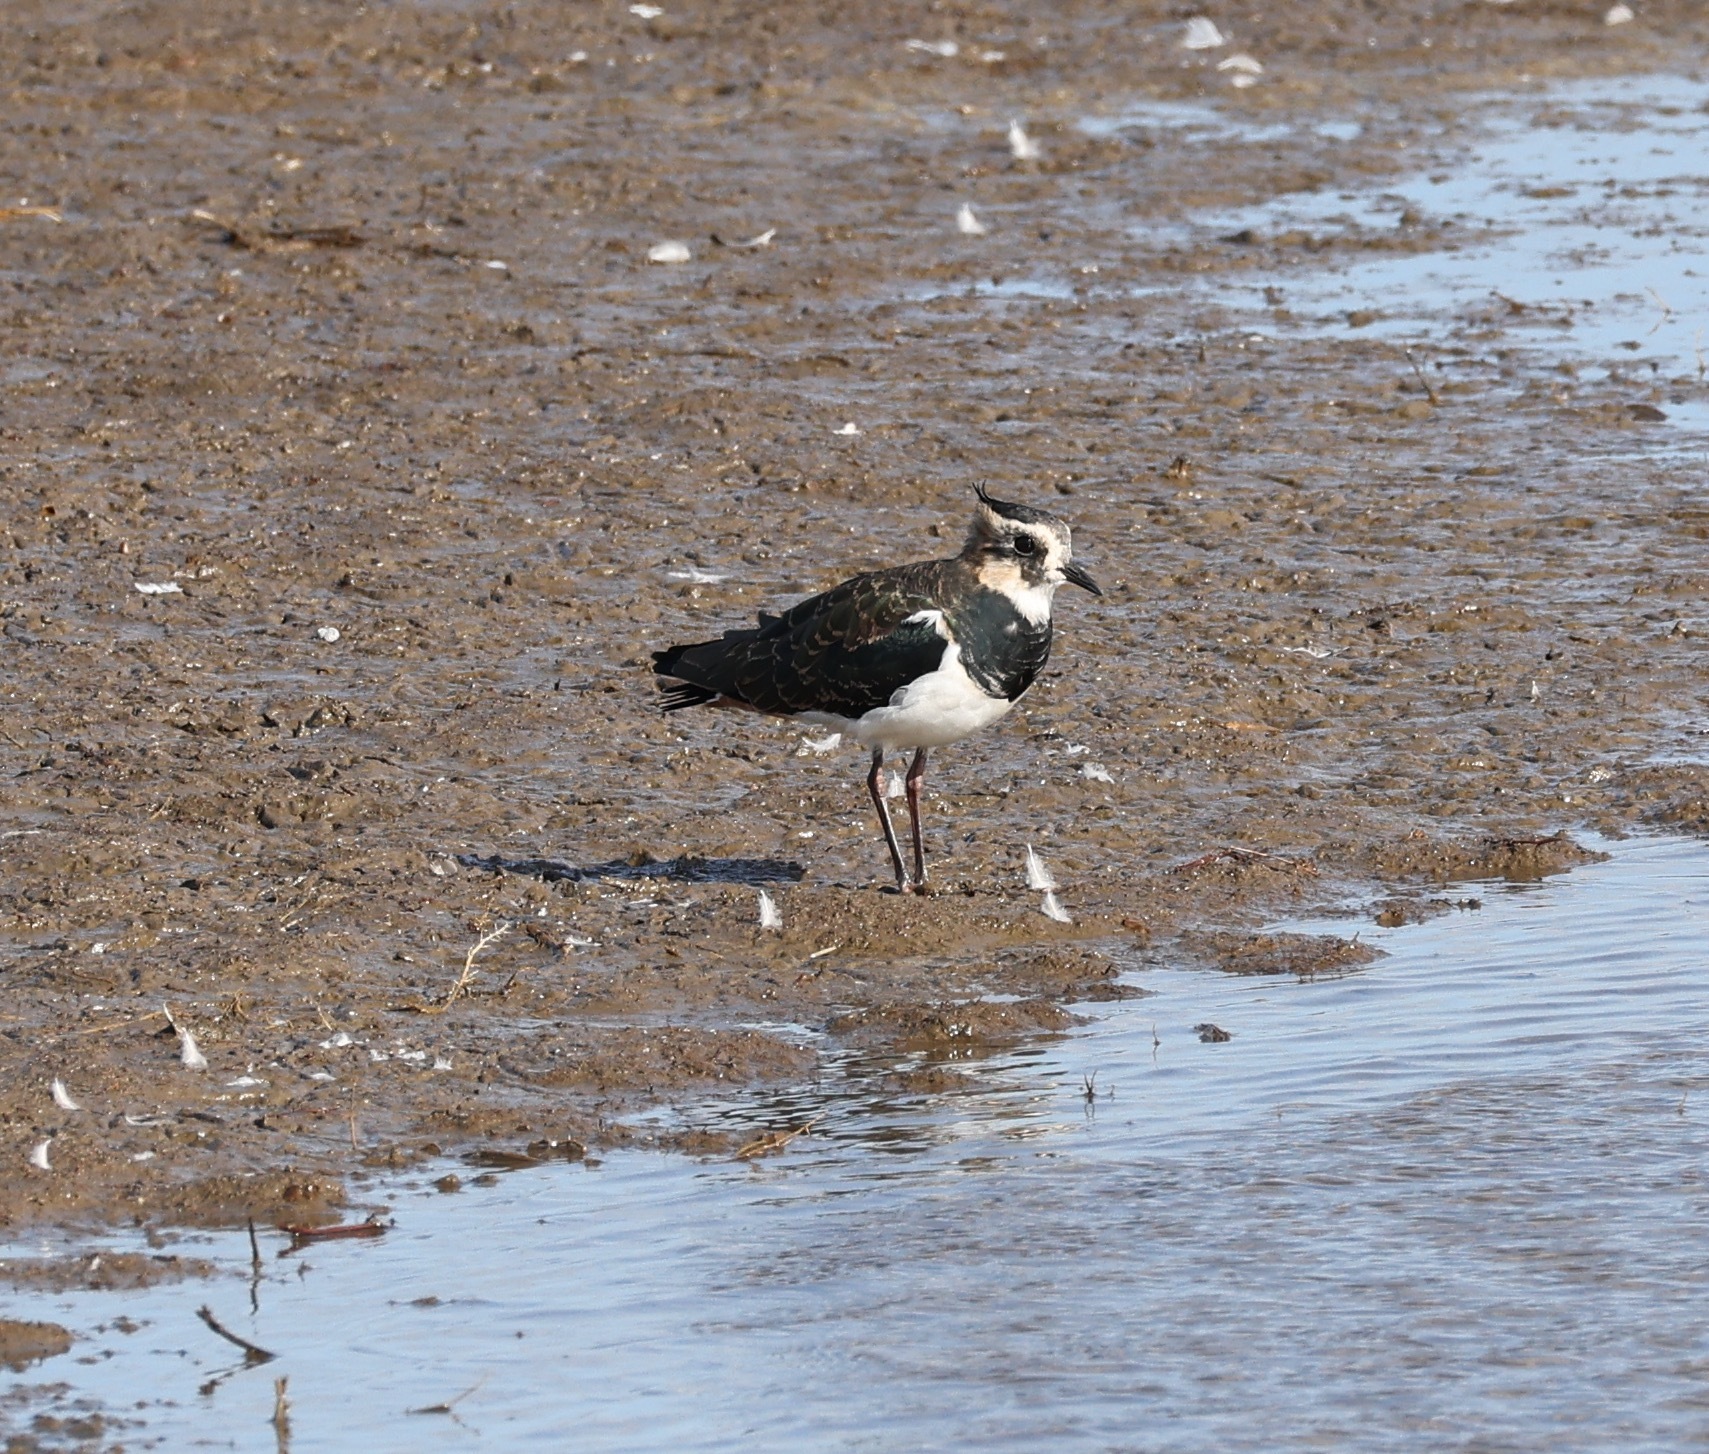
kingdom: Animalia
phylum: Chordata
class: Aves
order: Charadriiformes
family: Charadriidae
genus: Vanellus
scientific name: Vanellus vanellus
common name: Northern lapwing
